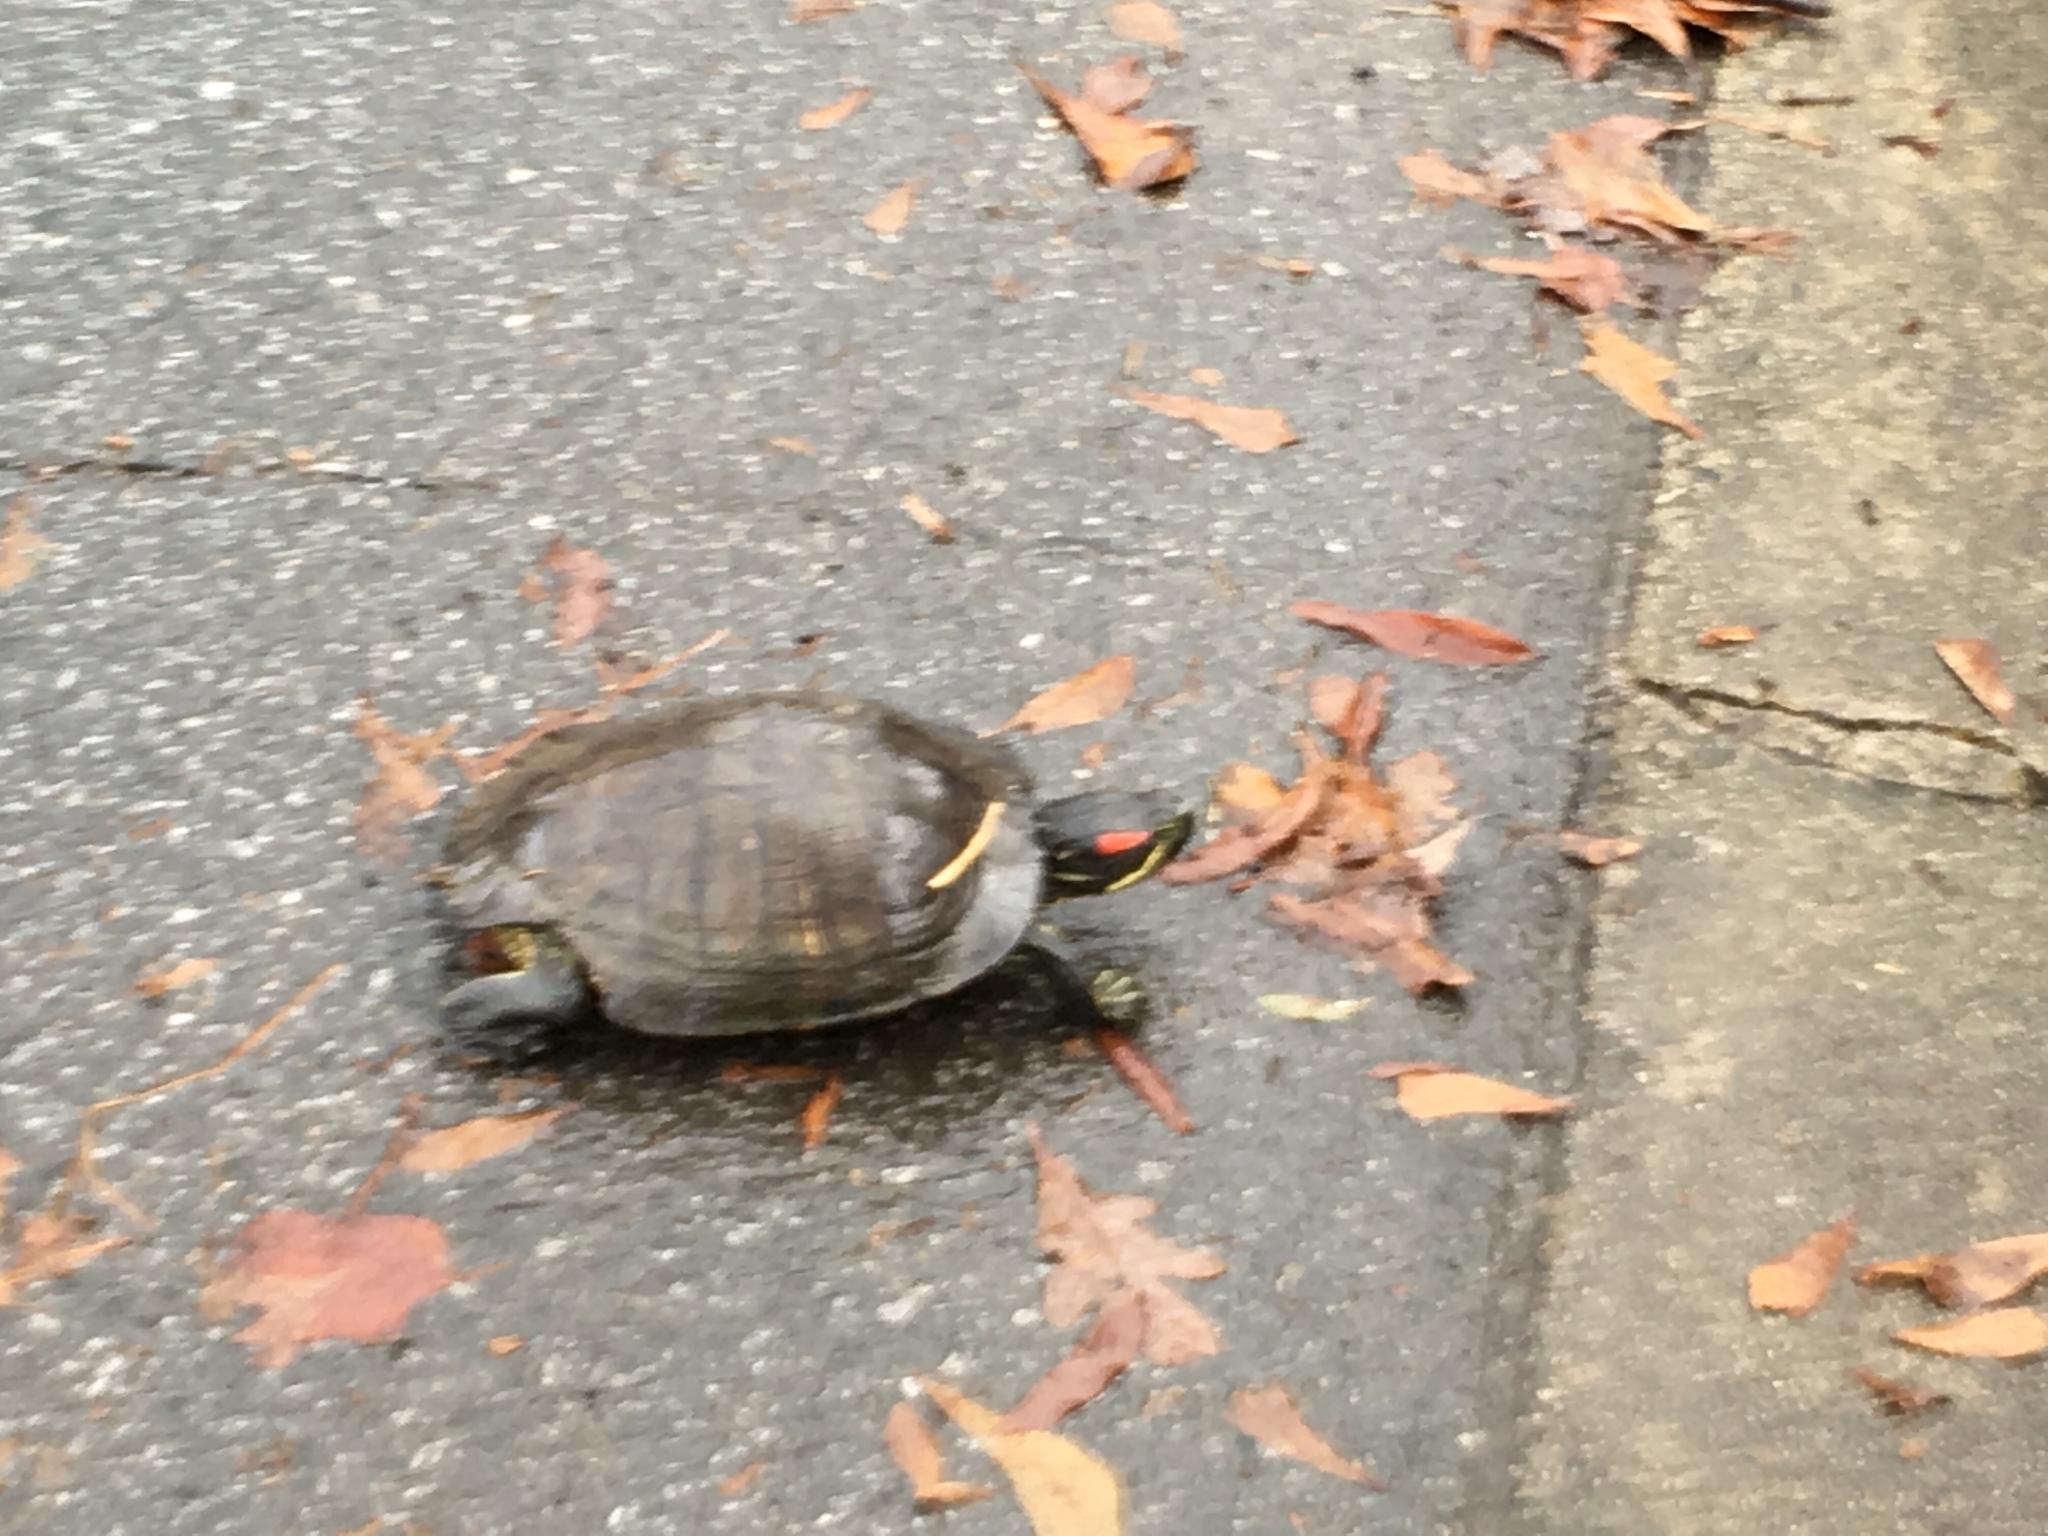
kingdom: Animalia
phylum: Chordata
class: Testudines
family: Emydidae
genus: Trachemys
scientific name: Trachemys scripta
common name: Slider
